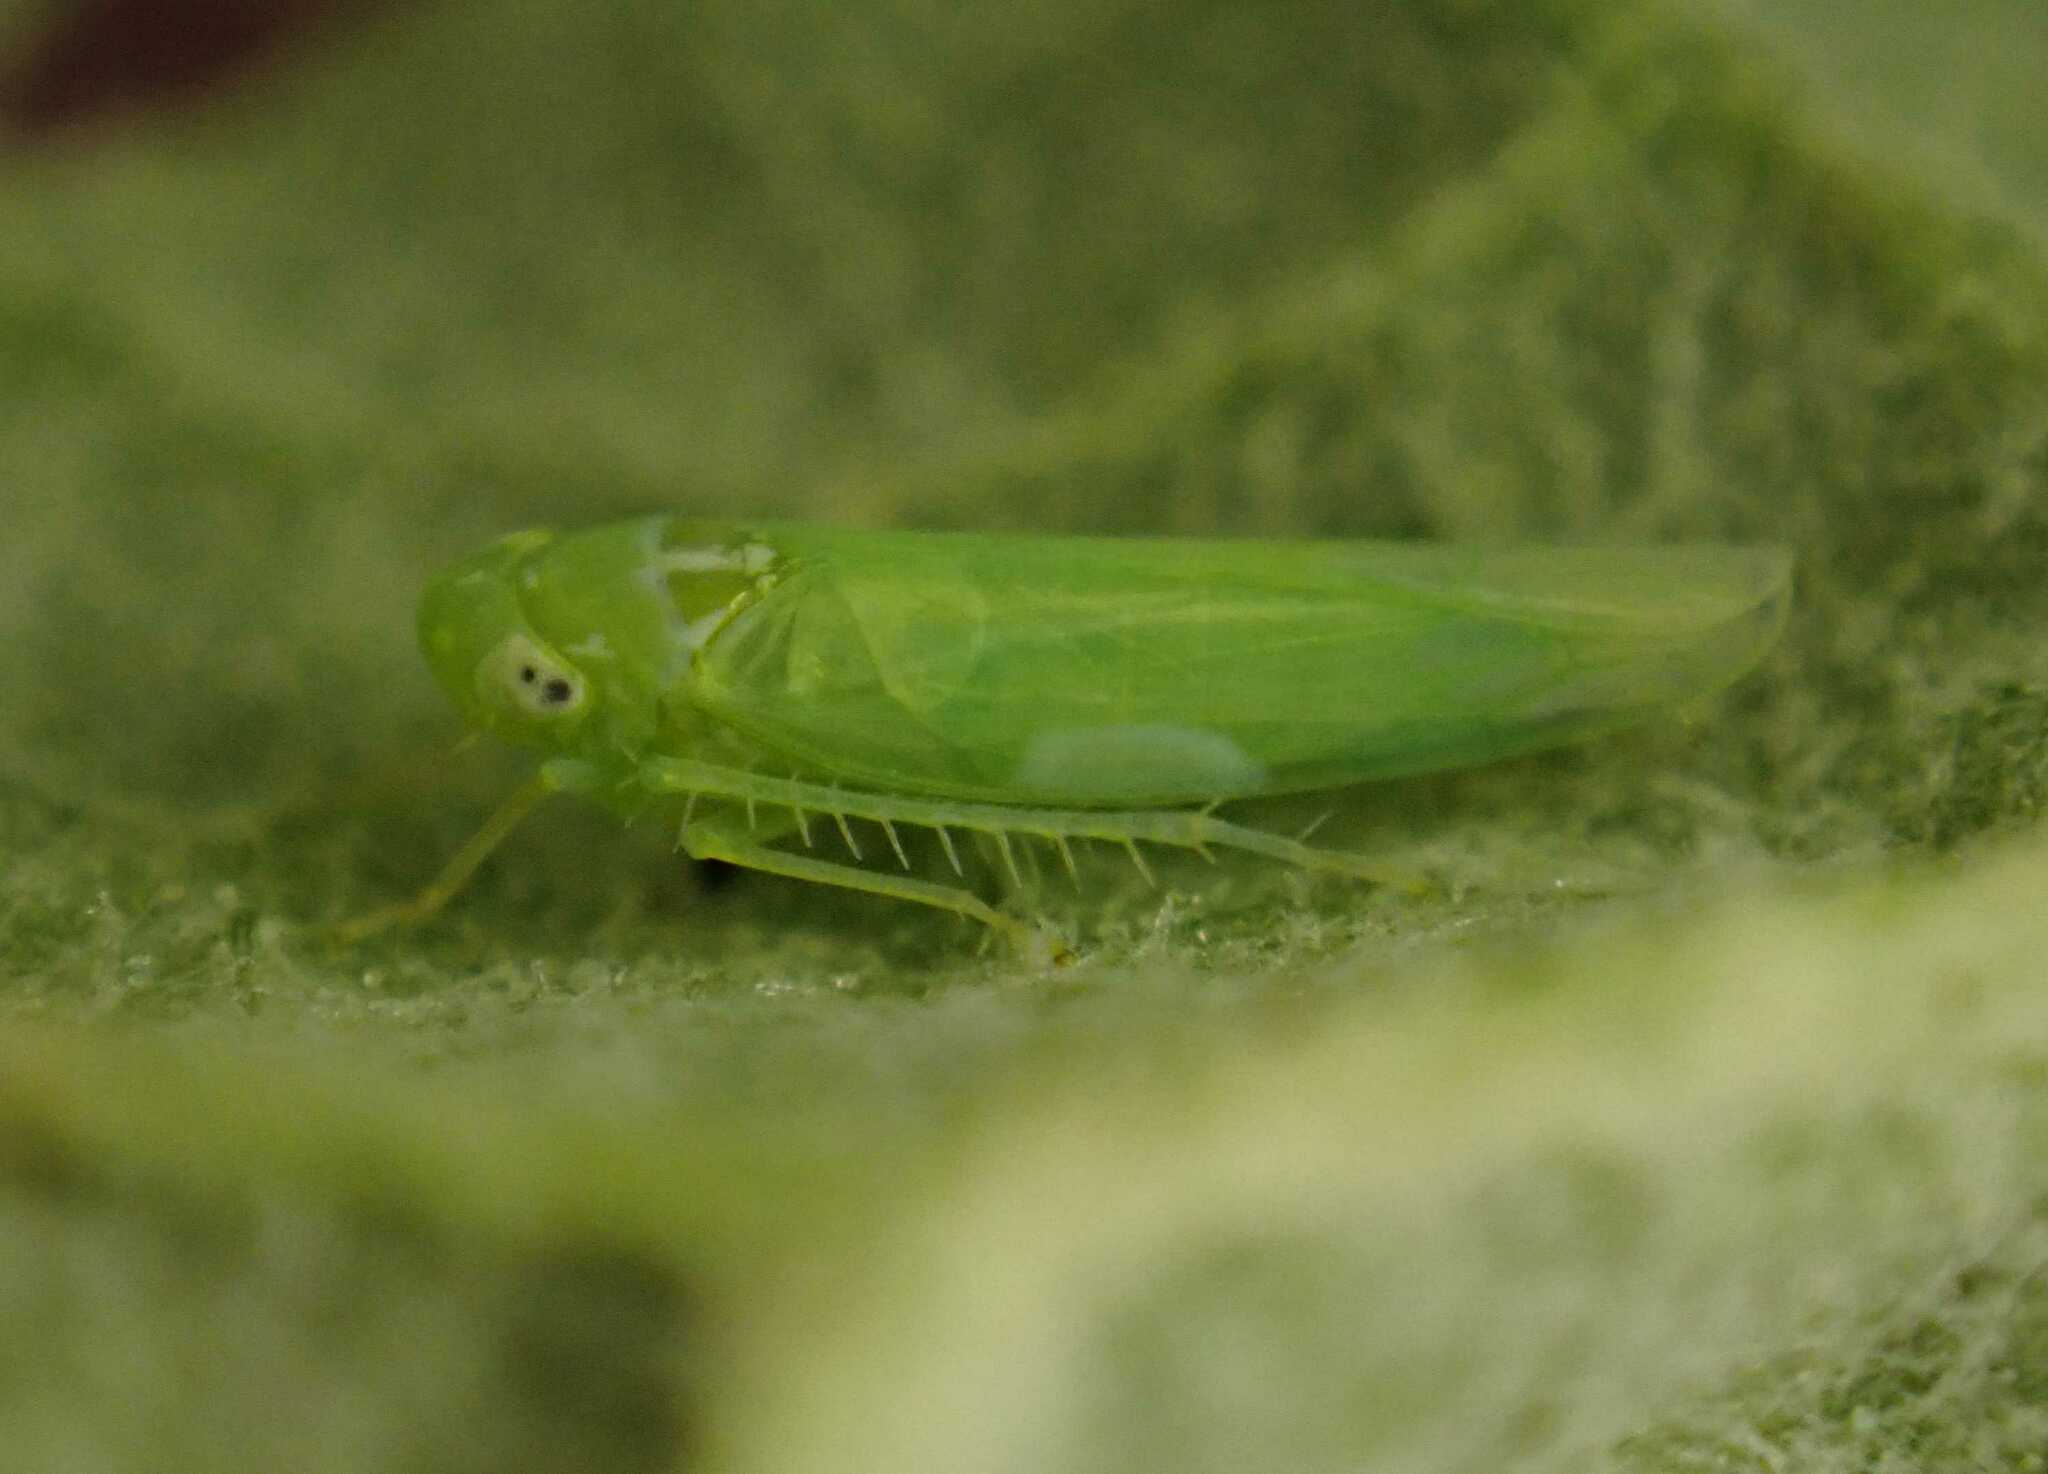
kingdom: Animalia
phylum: Arthropoda
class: Insecta
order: Hemiptera
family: Cicadellidae
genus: Hebata
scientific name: Hebata
